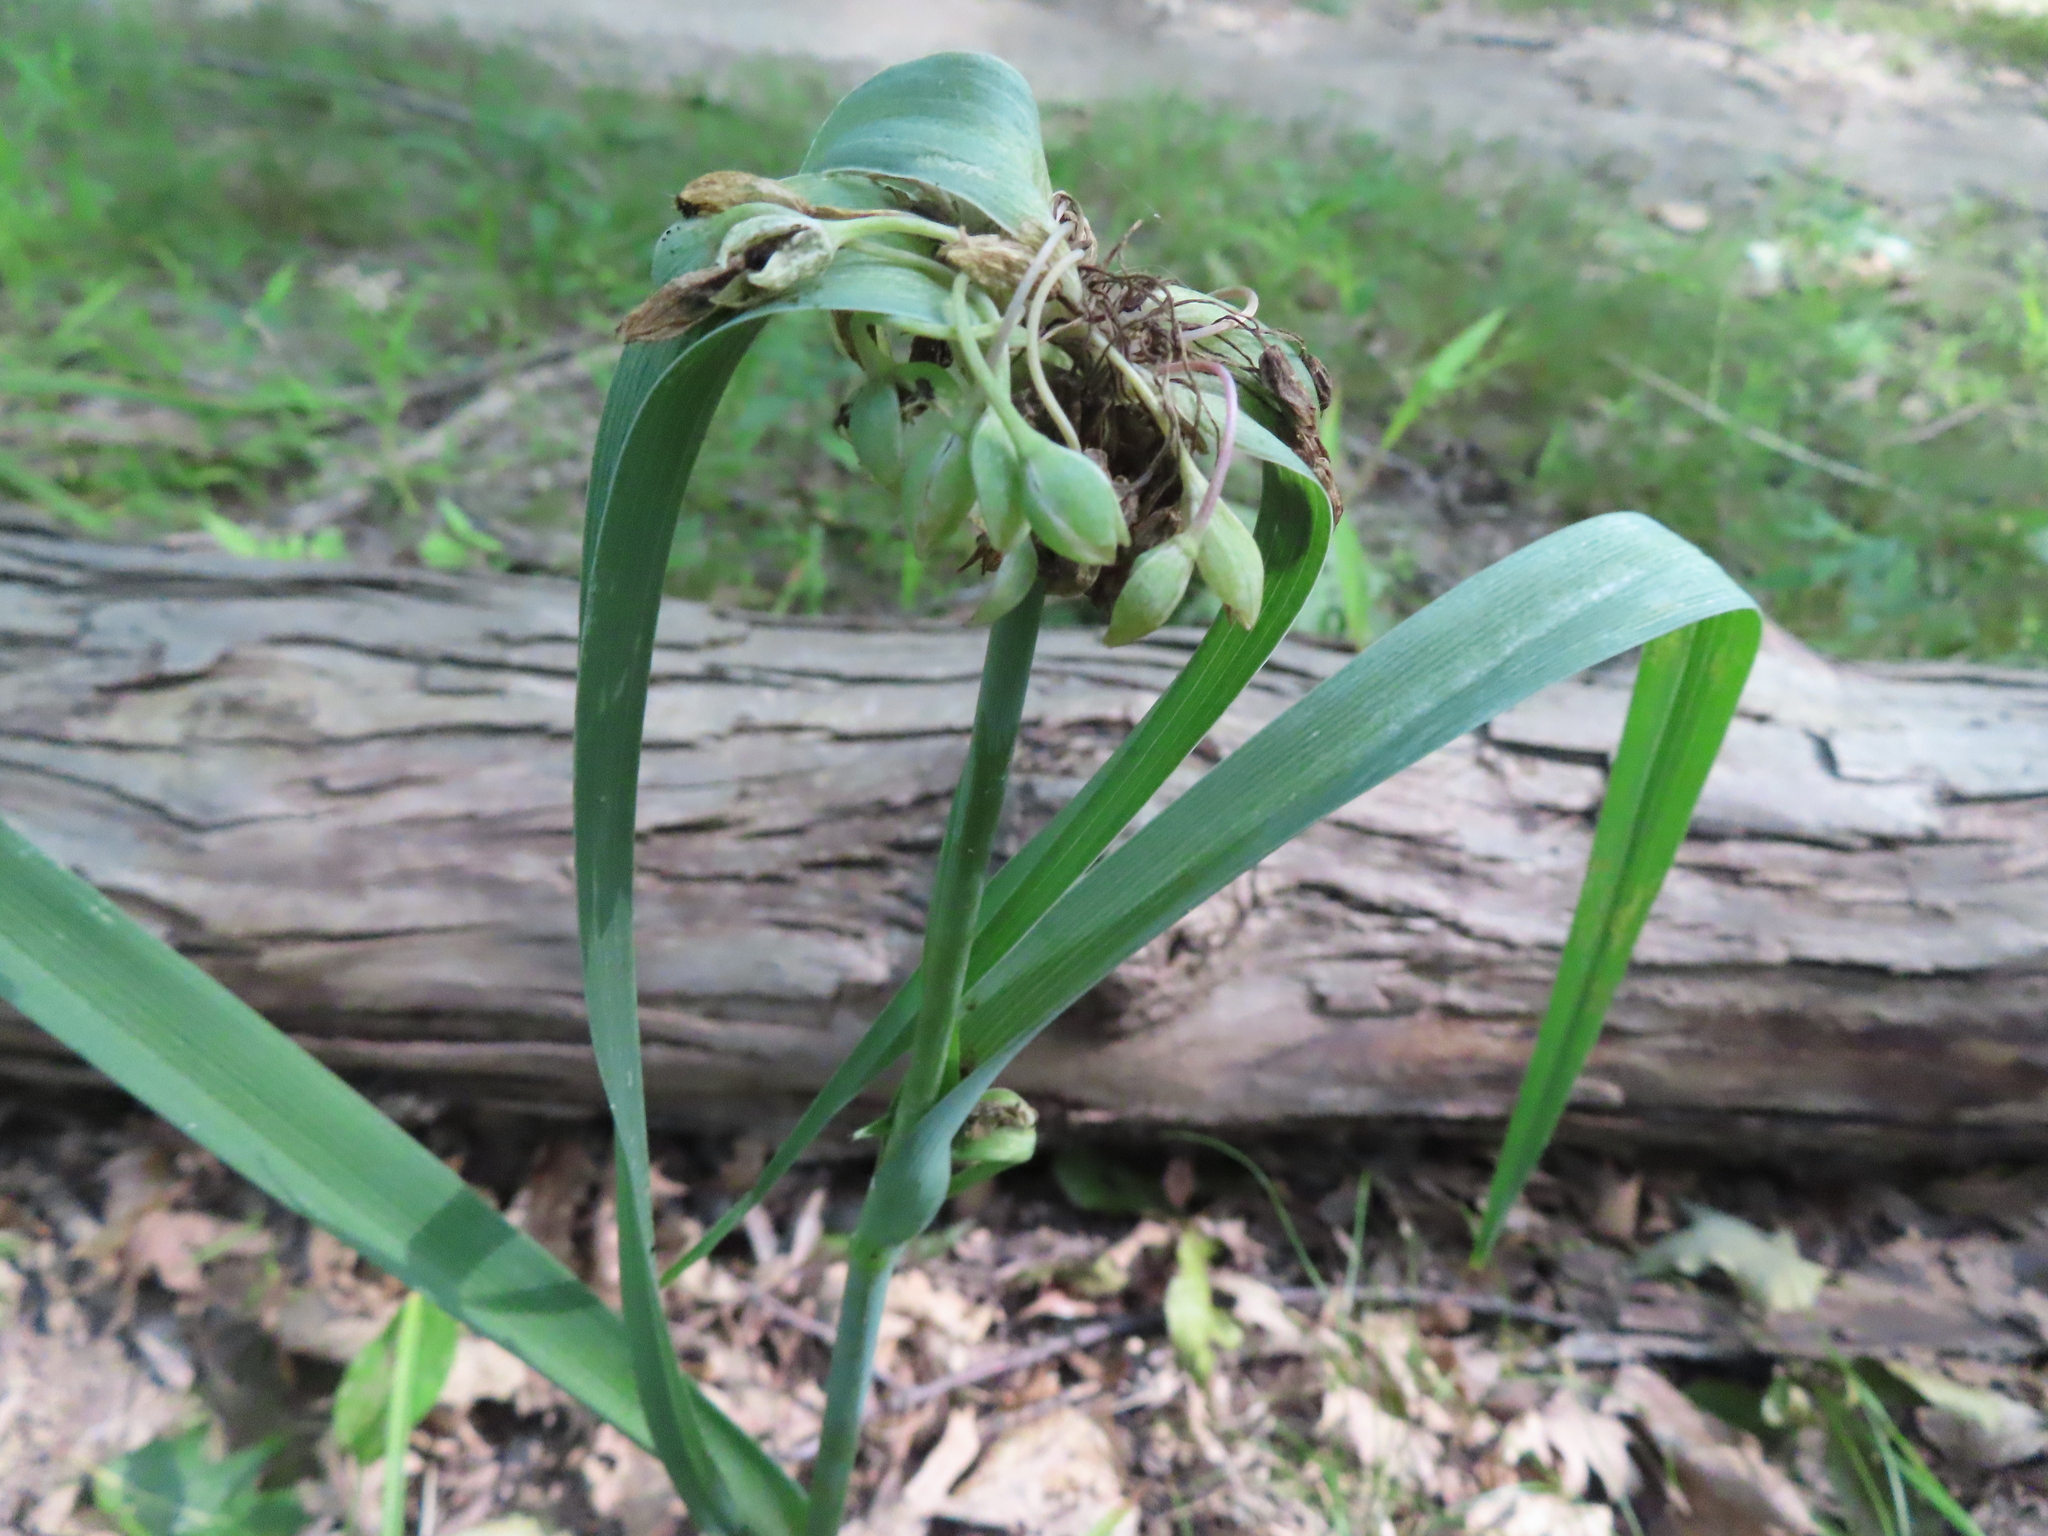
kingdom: Plantae
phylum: Tracheophyta
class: Liliopsida
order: Commelinales
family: Commelinaceae
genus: Tradescantia
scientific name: Tradescantia ohiensis
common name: Ohio spiderwort
